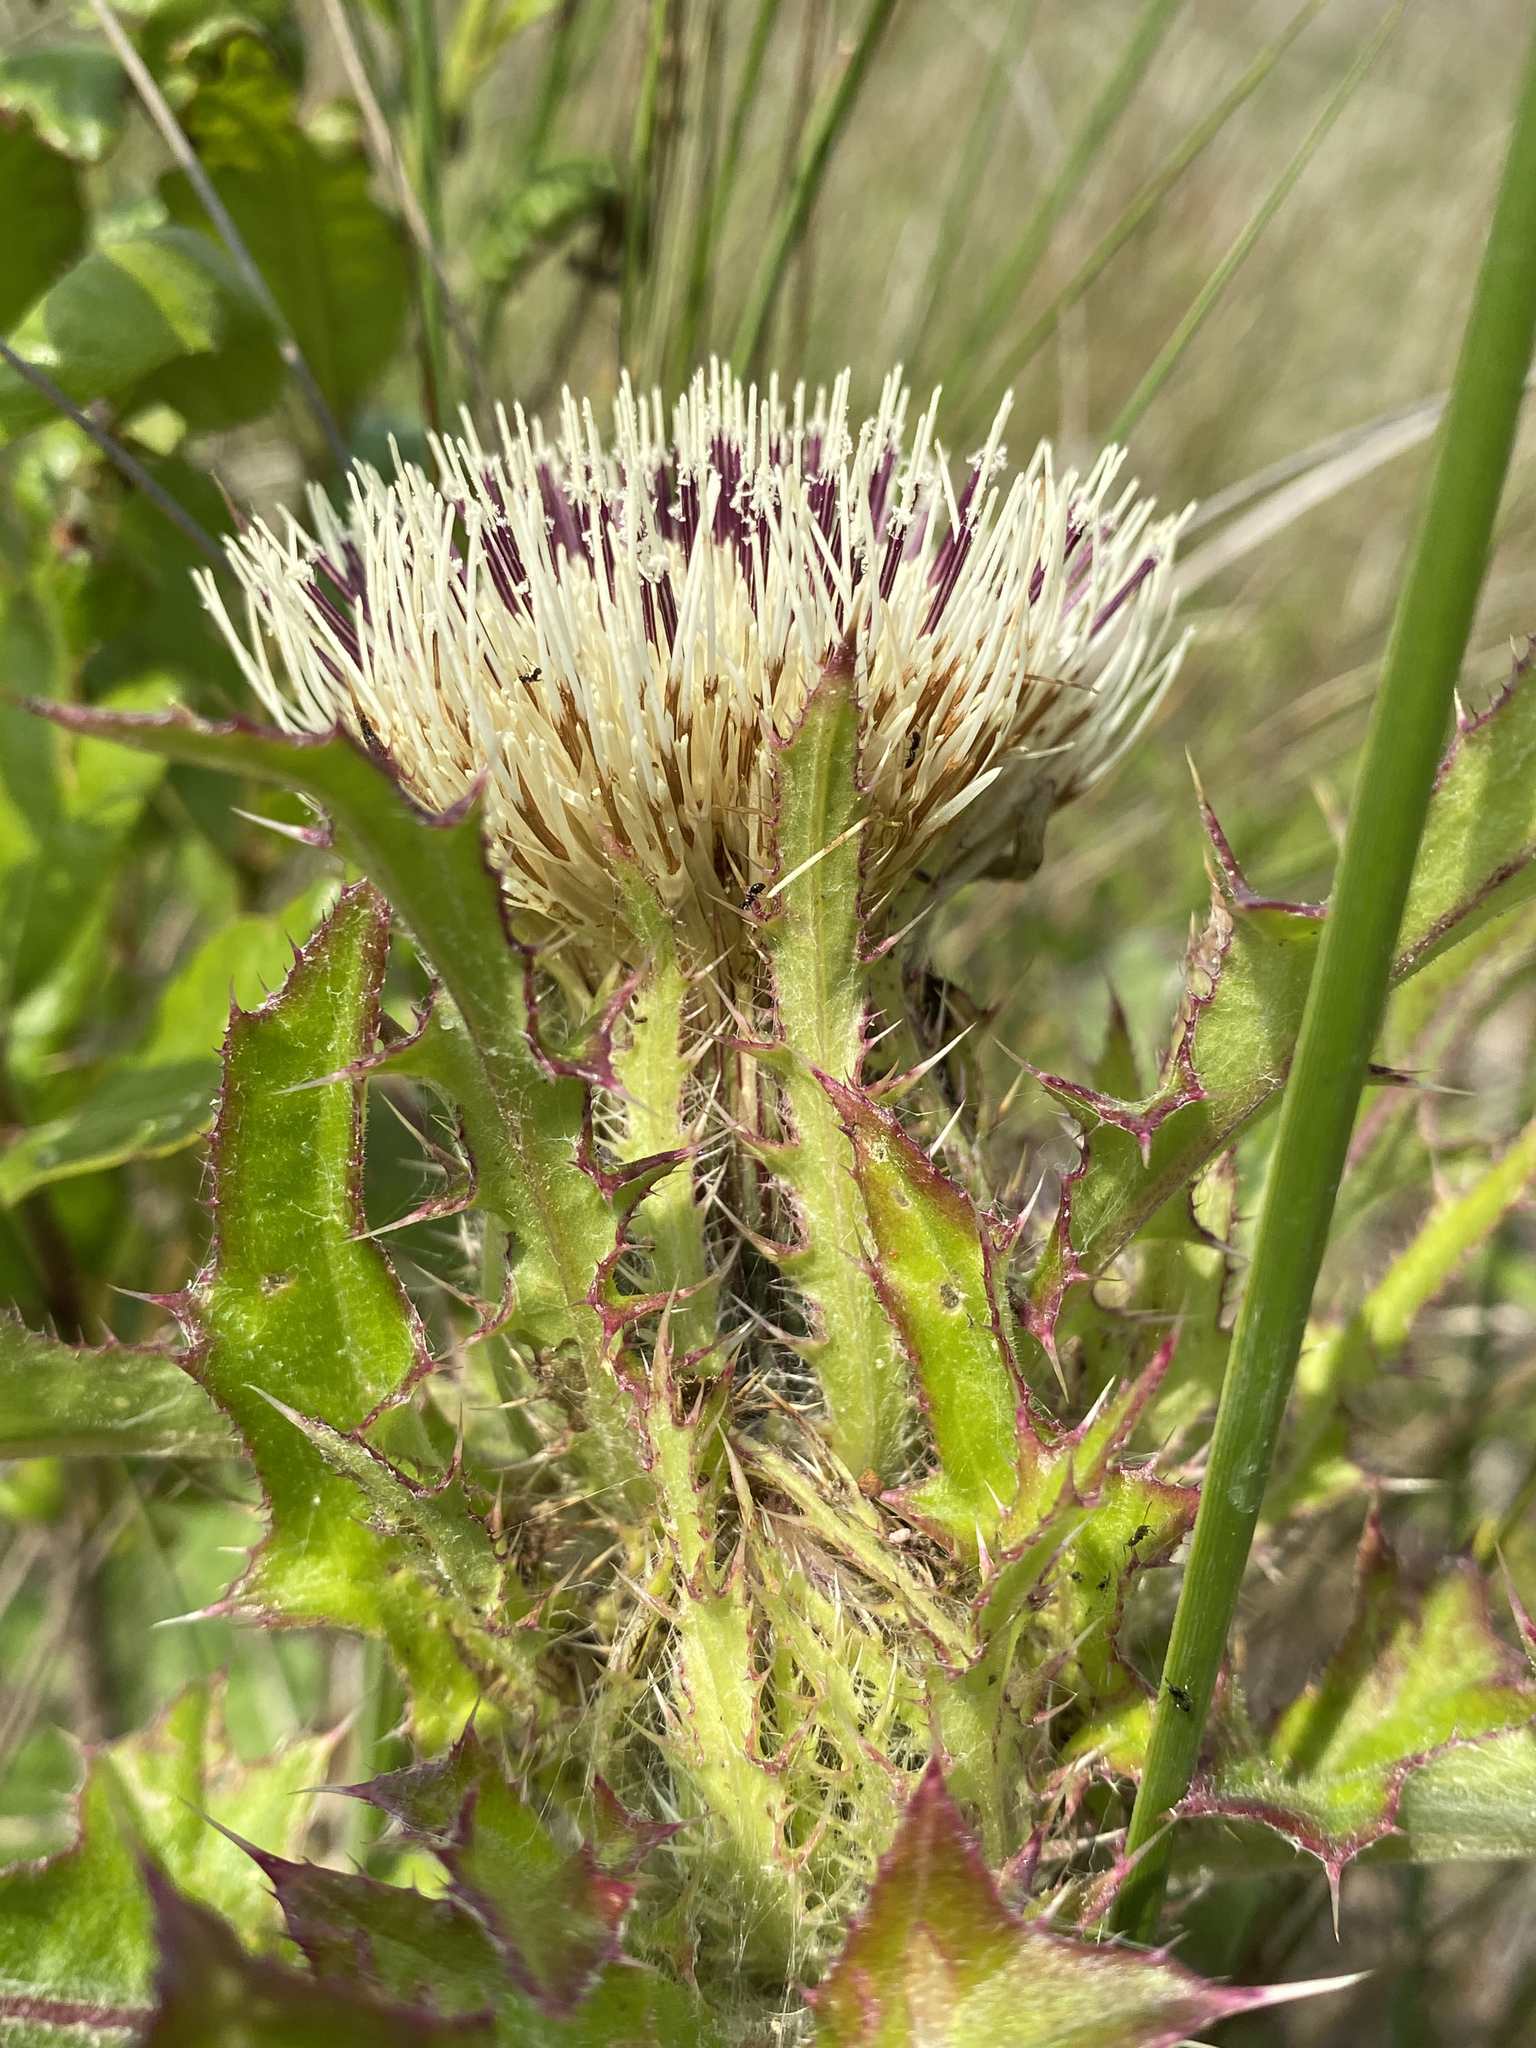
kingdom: Plantae
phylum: Tracheophyta
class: Magnoliopsida
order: Asterales
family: Asteraceae
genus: Cirsium
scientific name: Cirsium horridulum
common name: Bristly thistle
